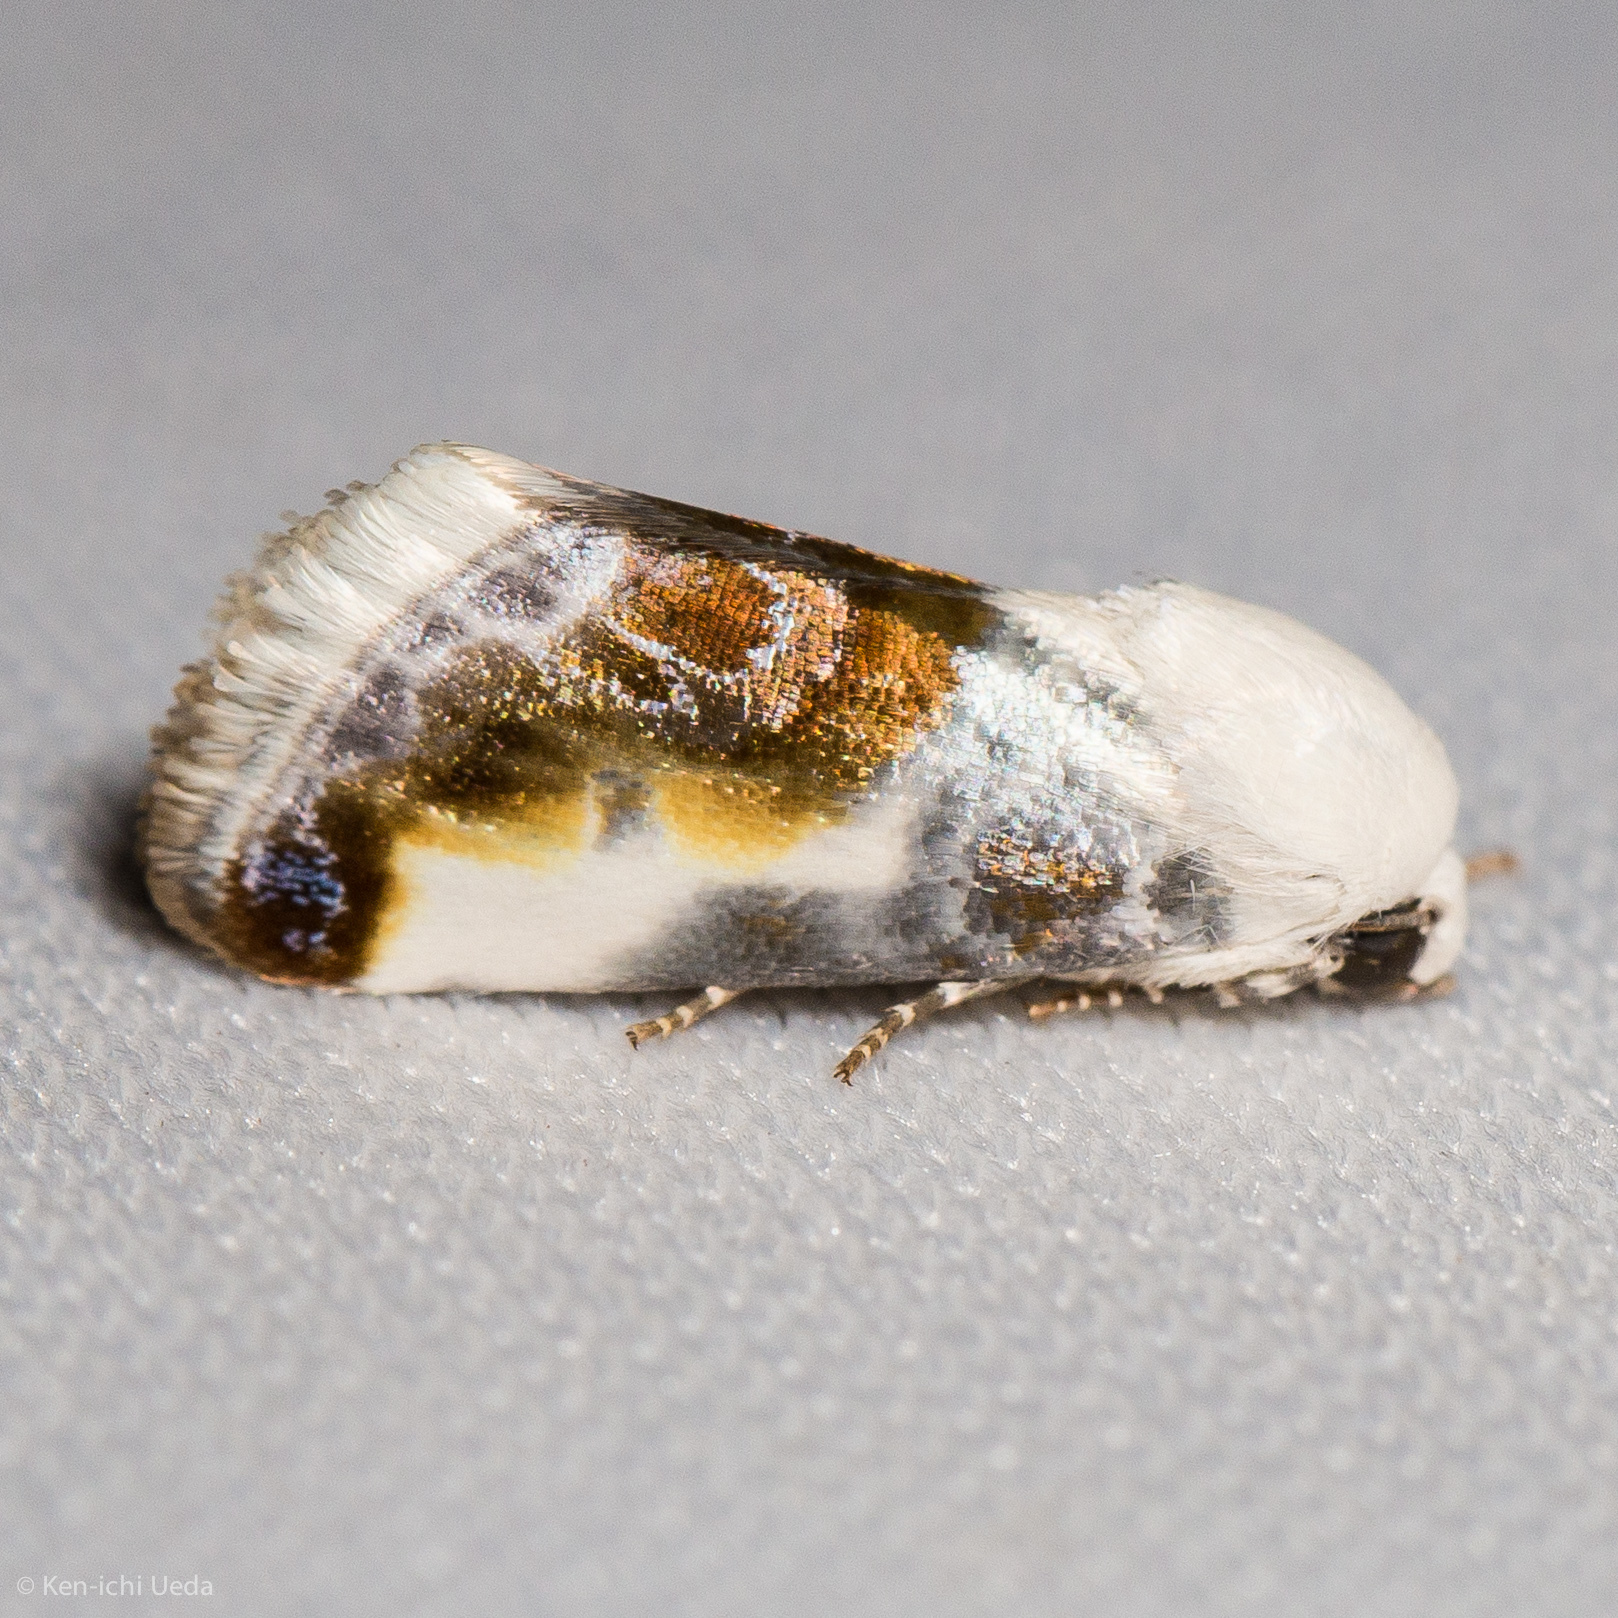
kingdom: Animalia
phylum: Arthropoda
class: Insecta
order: Lepidoptera
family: Noctuidae
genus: Acontia
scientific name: Acontia cretata
